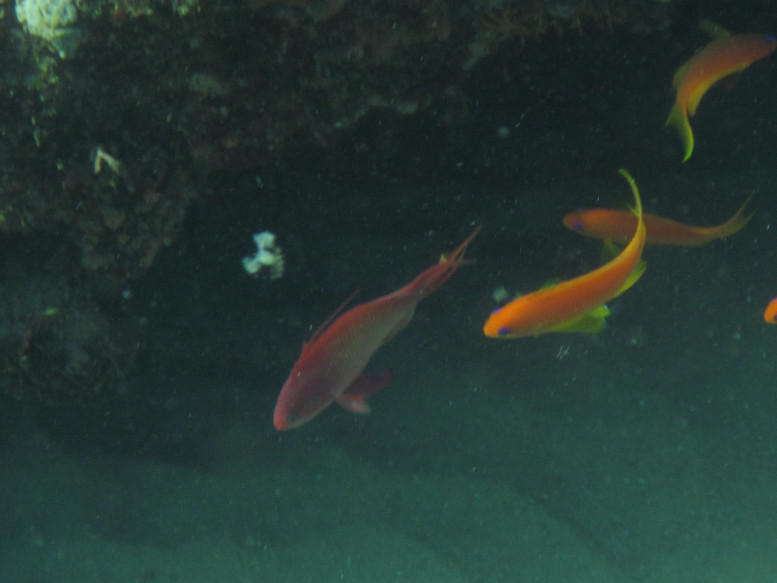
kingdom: Animalia
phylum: Chordata
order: Perciformes
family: Serranidae
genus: Pseudanthias
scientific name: Pseudanthias squamipinnis
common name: Scalefin anthias
